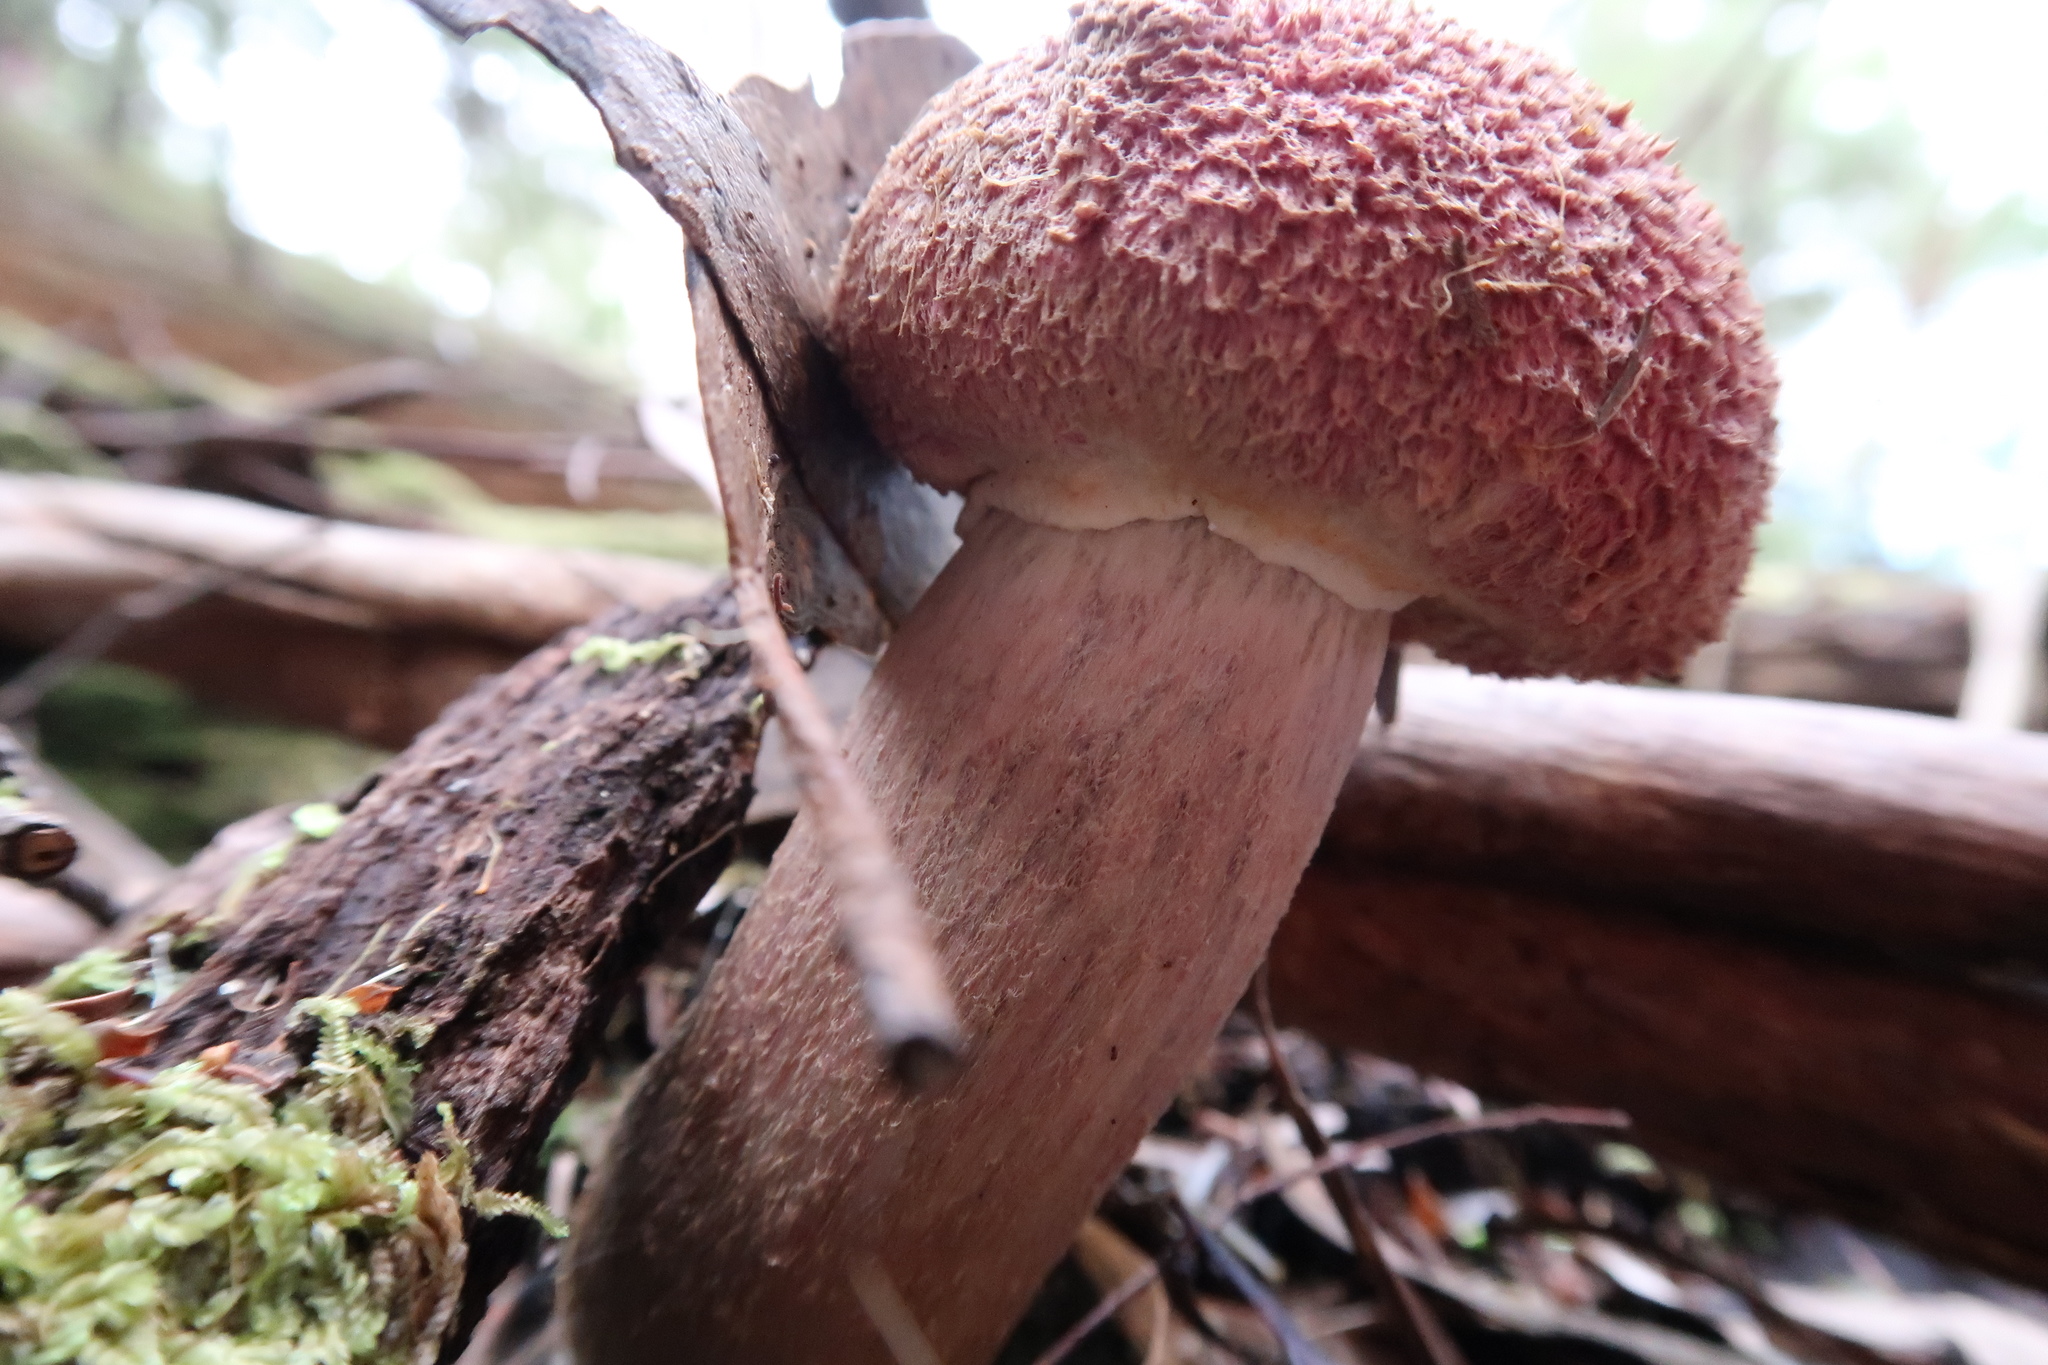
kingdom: Fungi
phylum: Basidiomycota
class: Agaricomycetes
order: Boletales
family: Boletaceae
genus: Boletellus
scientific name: Boletellus emodensis
